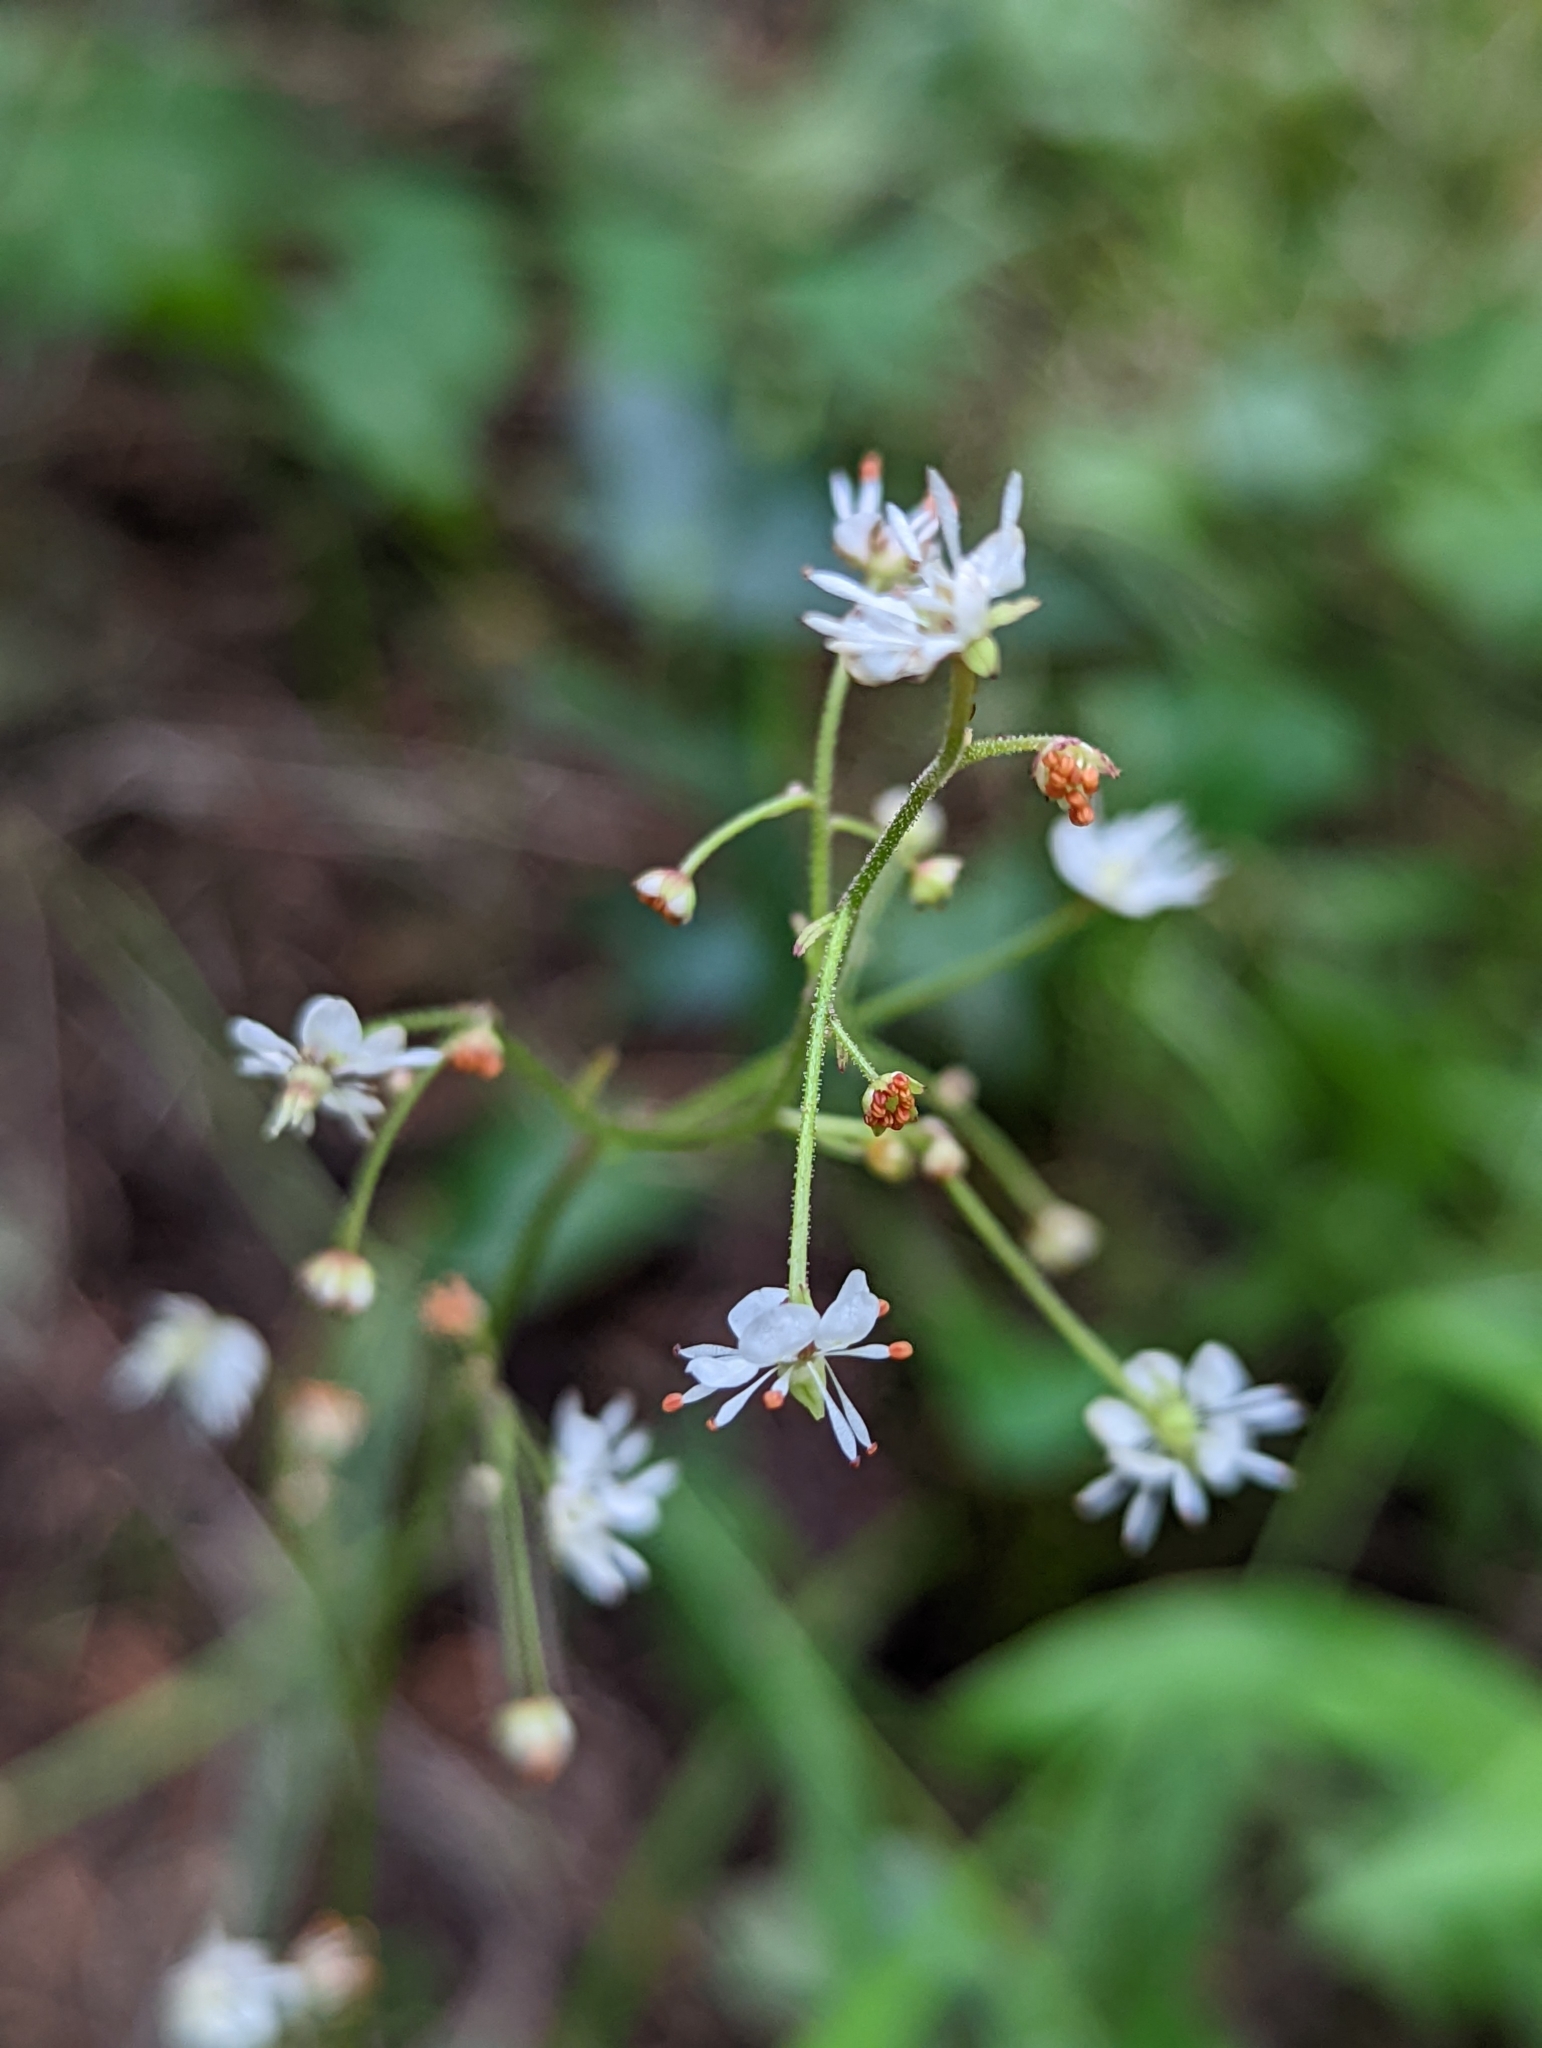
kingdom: Plantae
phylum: Tracheophyta
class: Magnoliopsida
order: Saxifragales
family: Saxifragaceae
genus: Micranthes
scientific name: Micranthes odontoloma
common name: Brook saxifrage
